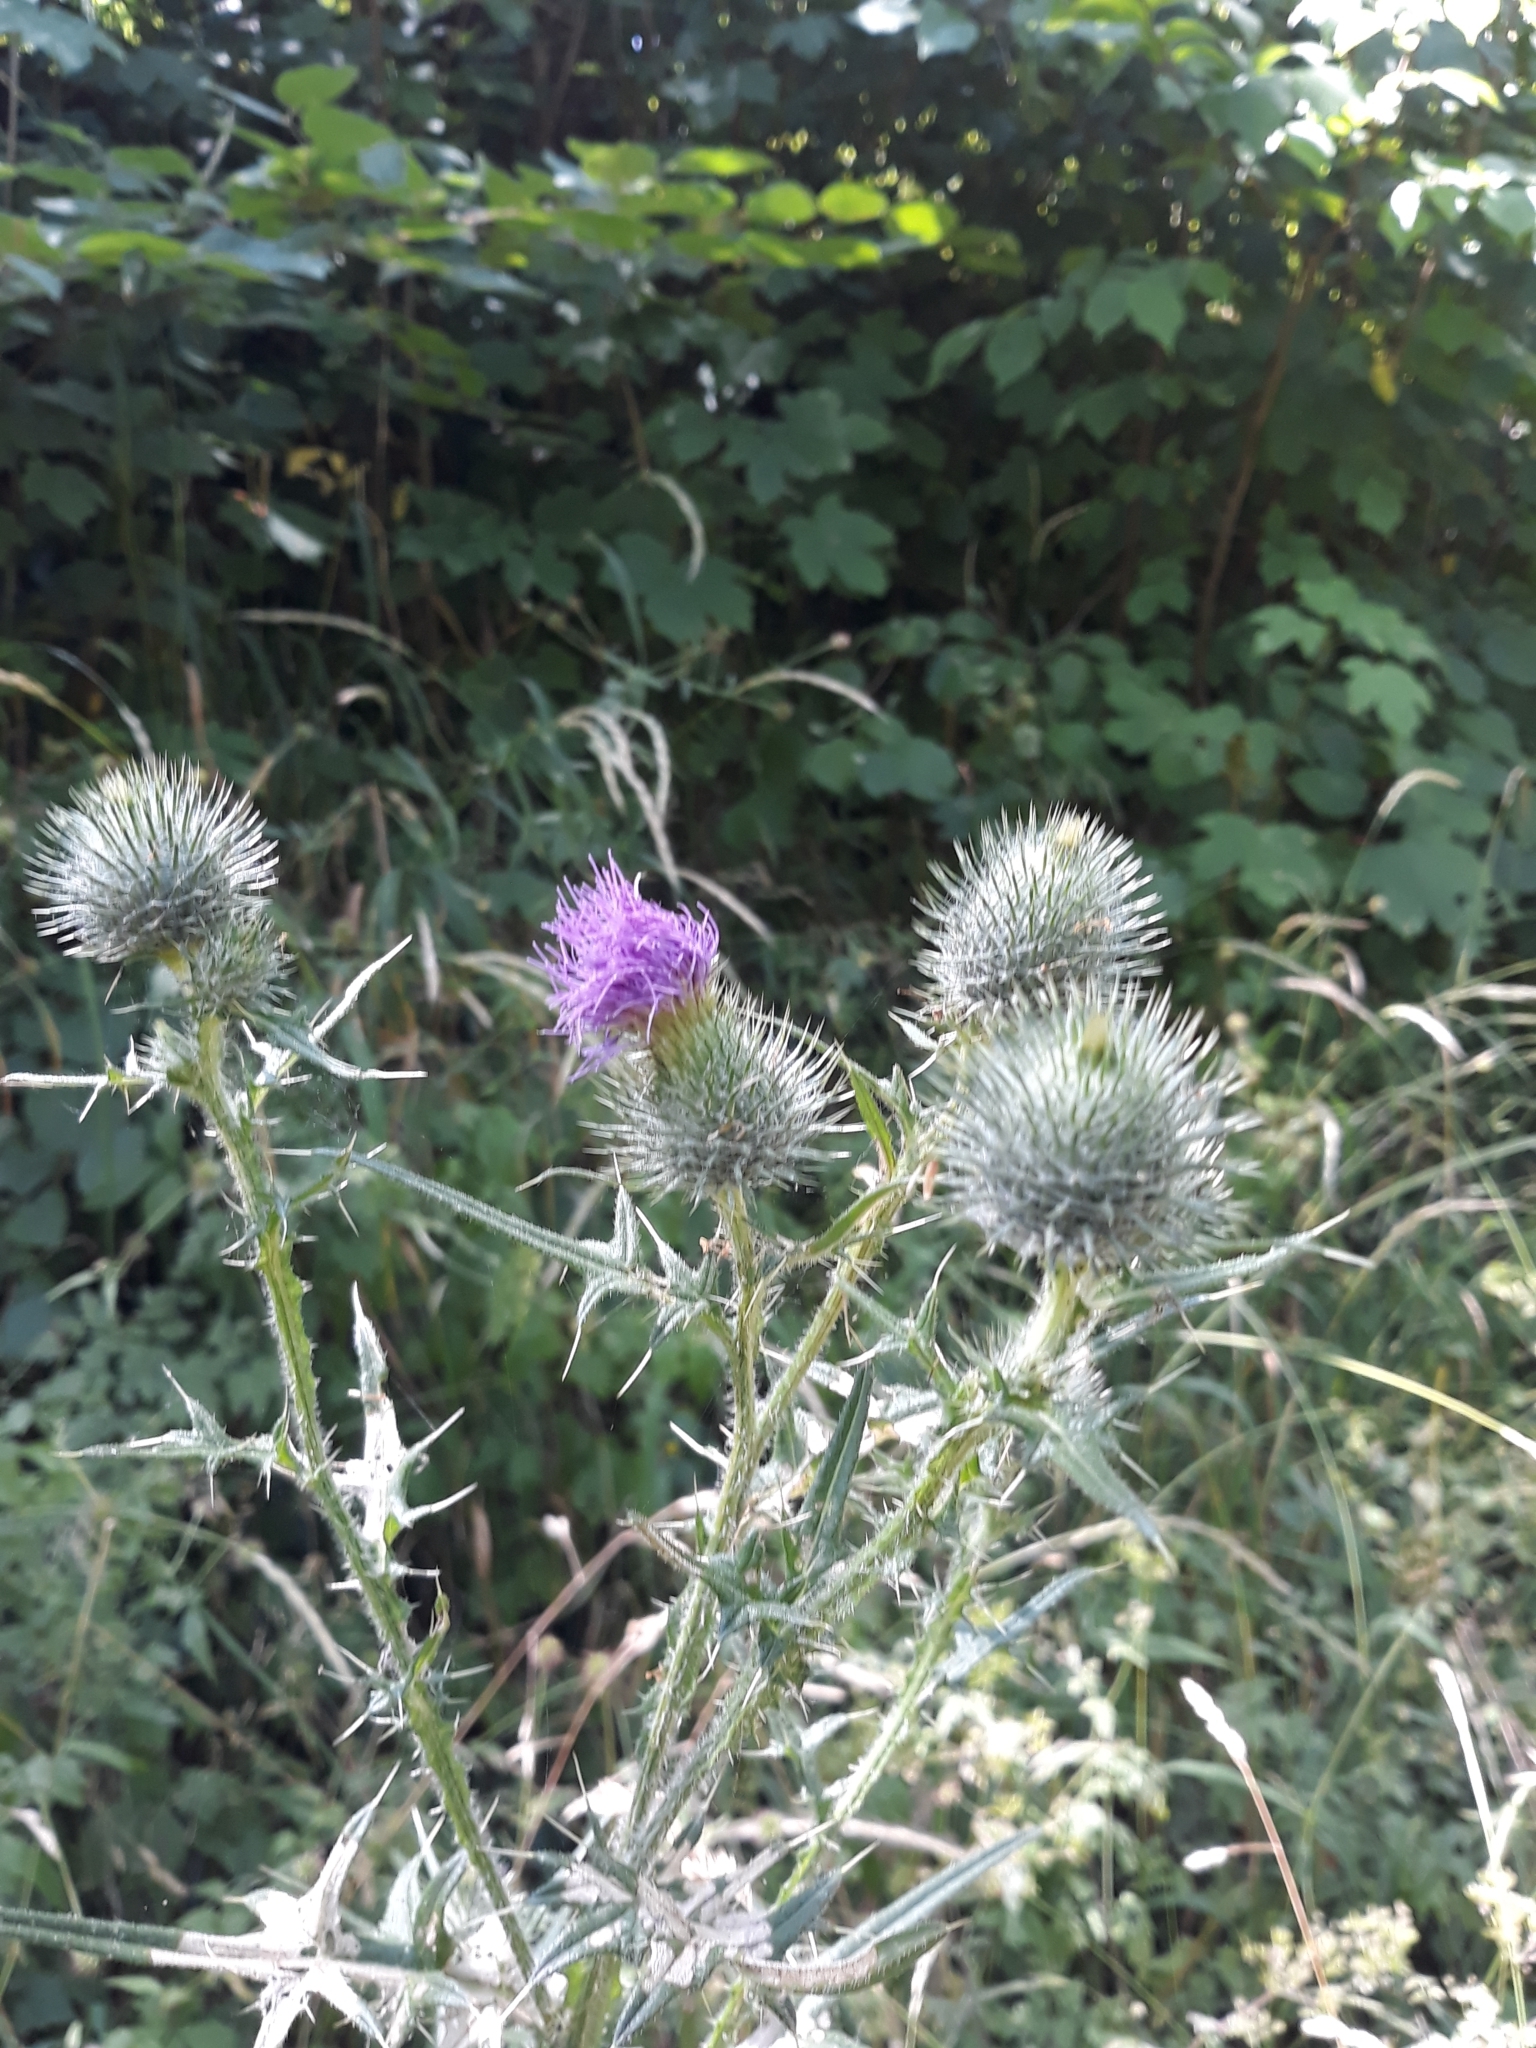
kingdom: Plantae
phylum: Tracheophyta
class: Magnoliopsida
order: Asterales
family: Asteraceae
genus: Cirsium
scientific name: Cirsium vulgare
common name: Bull thistle
